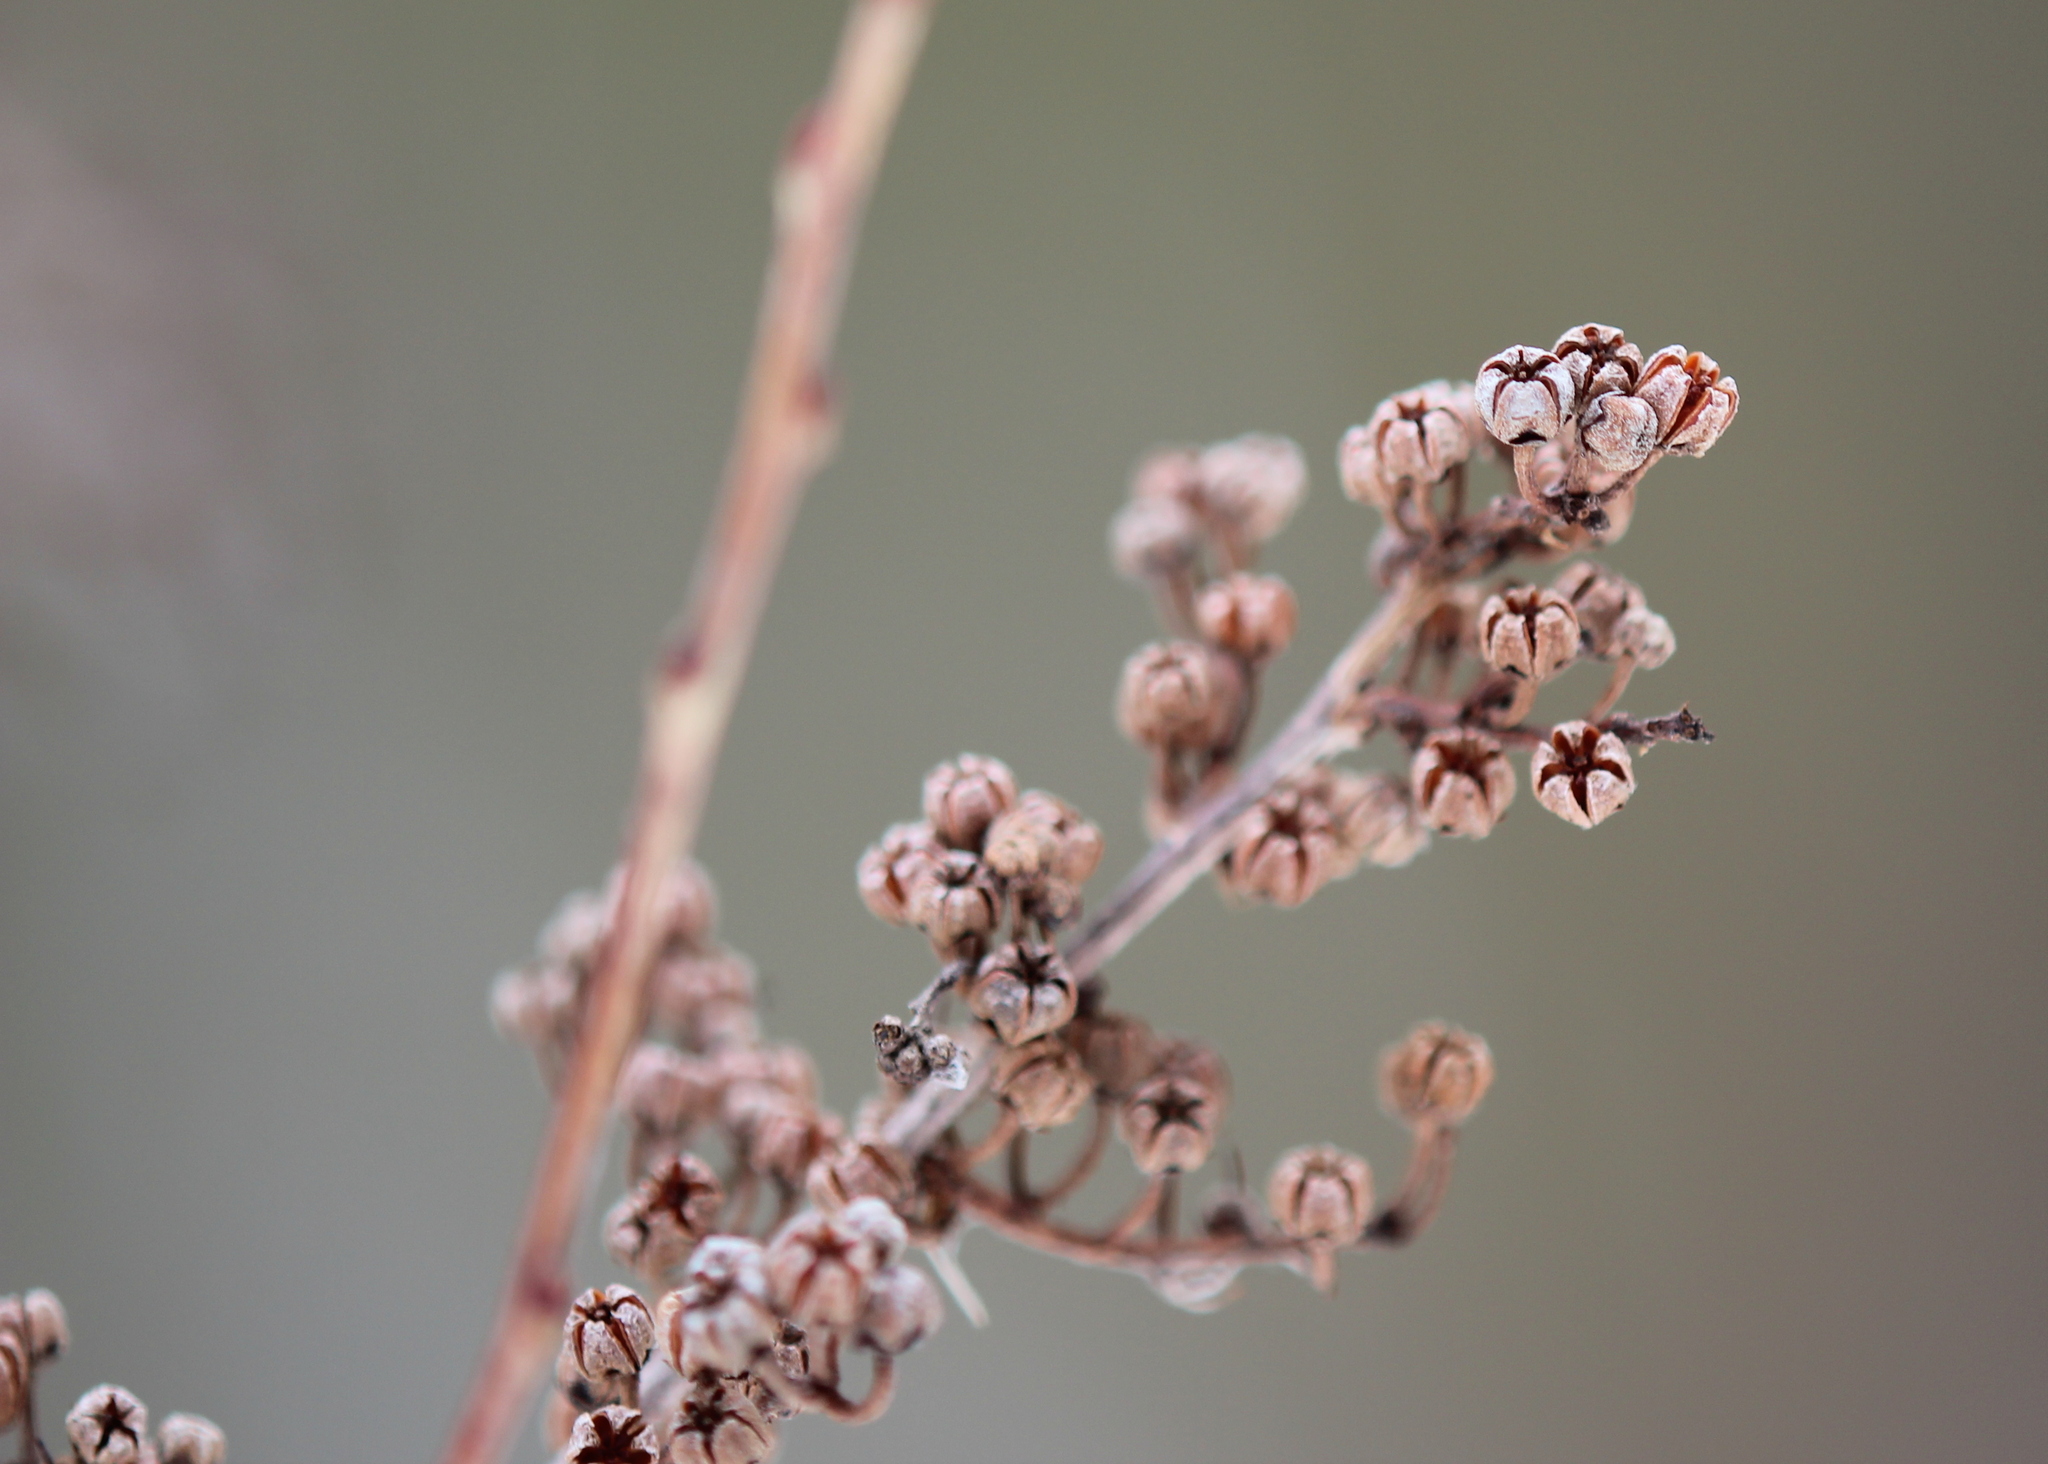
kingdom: Plantae
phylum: Tracheophyta
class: Magnoliopsida
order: Ericales
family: Ericaceae
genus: Lyonia
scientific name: Lyonia ligustrina
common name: Maleberry
